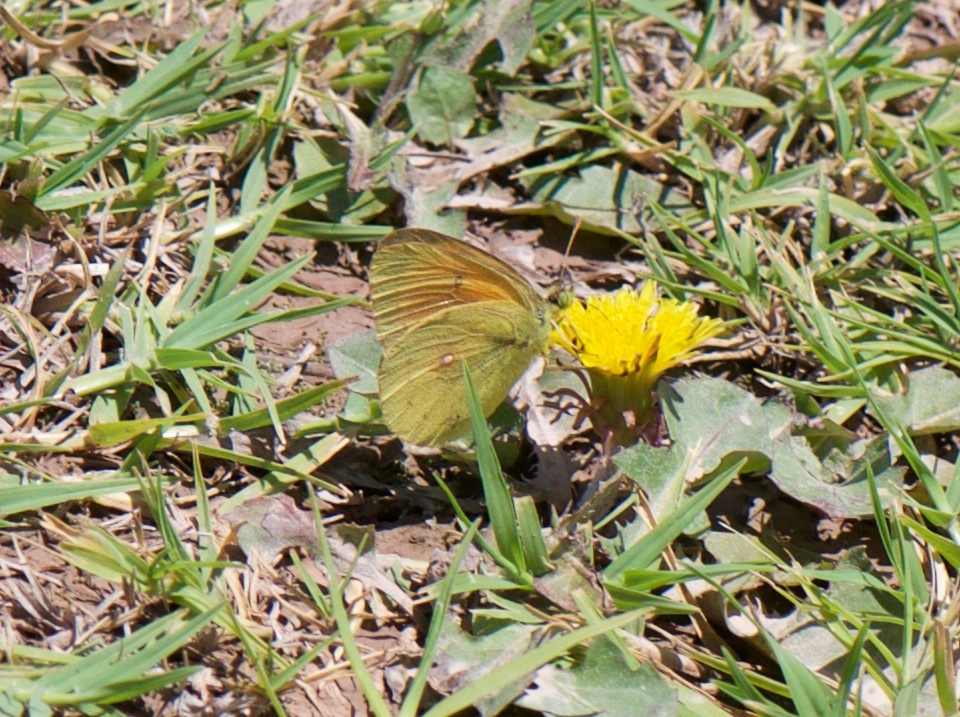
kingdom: Animalia
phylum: Arthropoda
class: Insecta
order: Lepidoptera
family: Pieridae
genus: Colias
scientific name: Colias lesbia
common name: Lesbia clouded yellow
